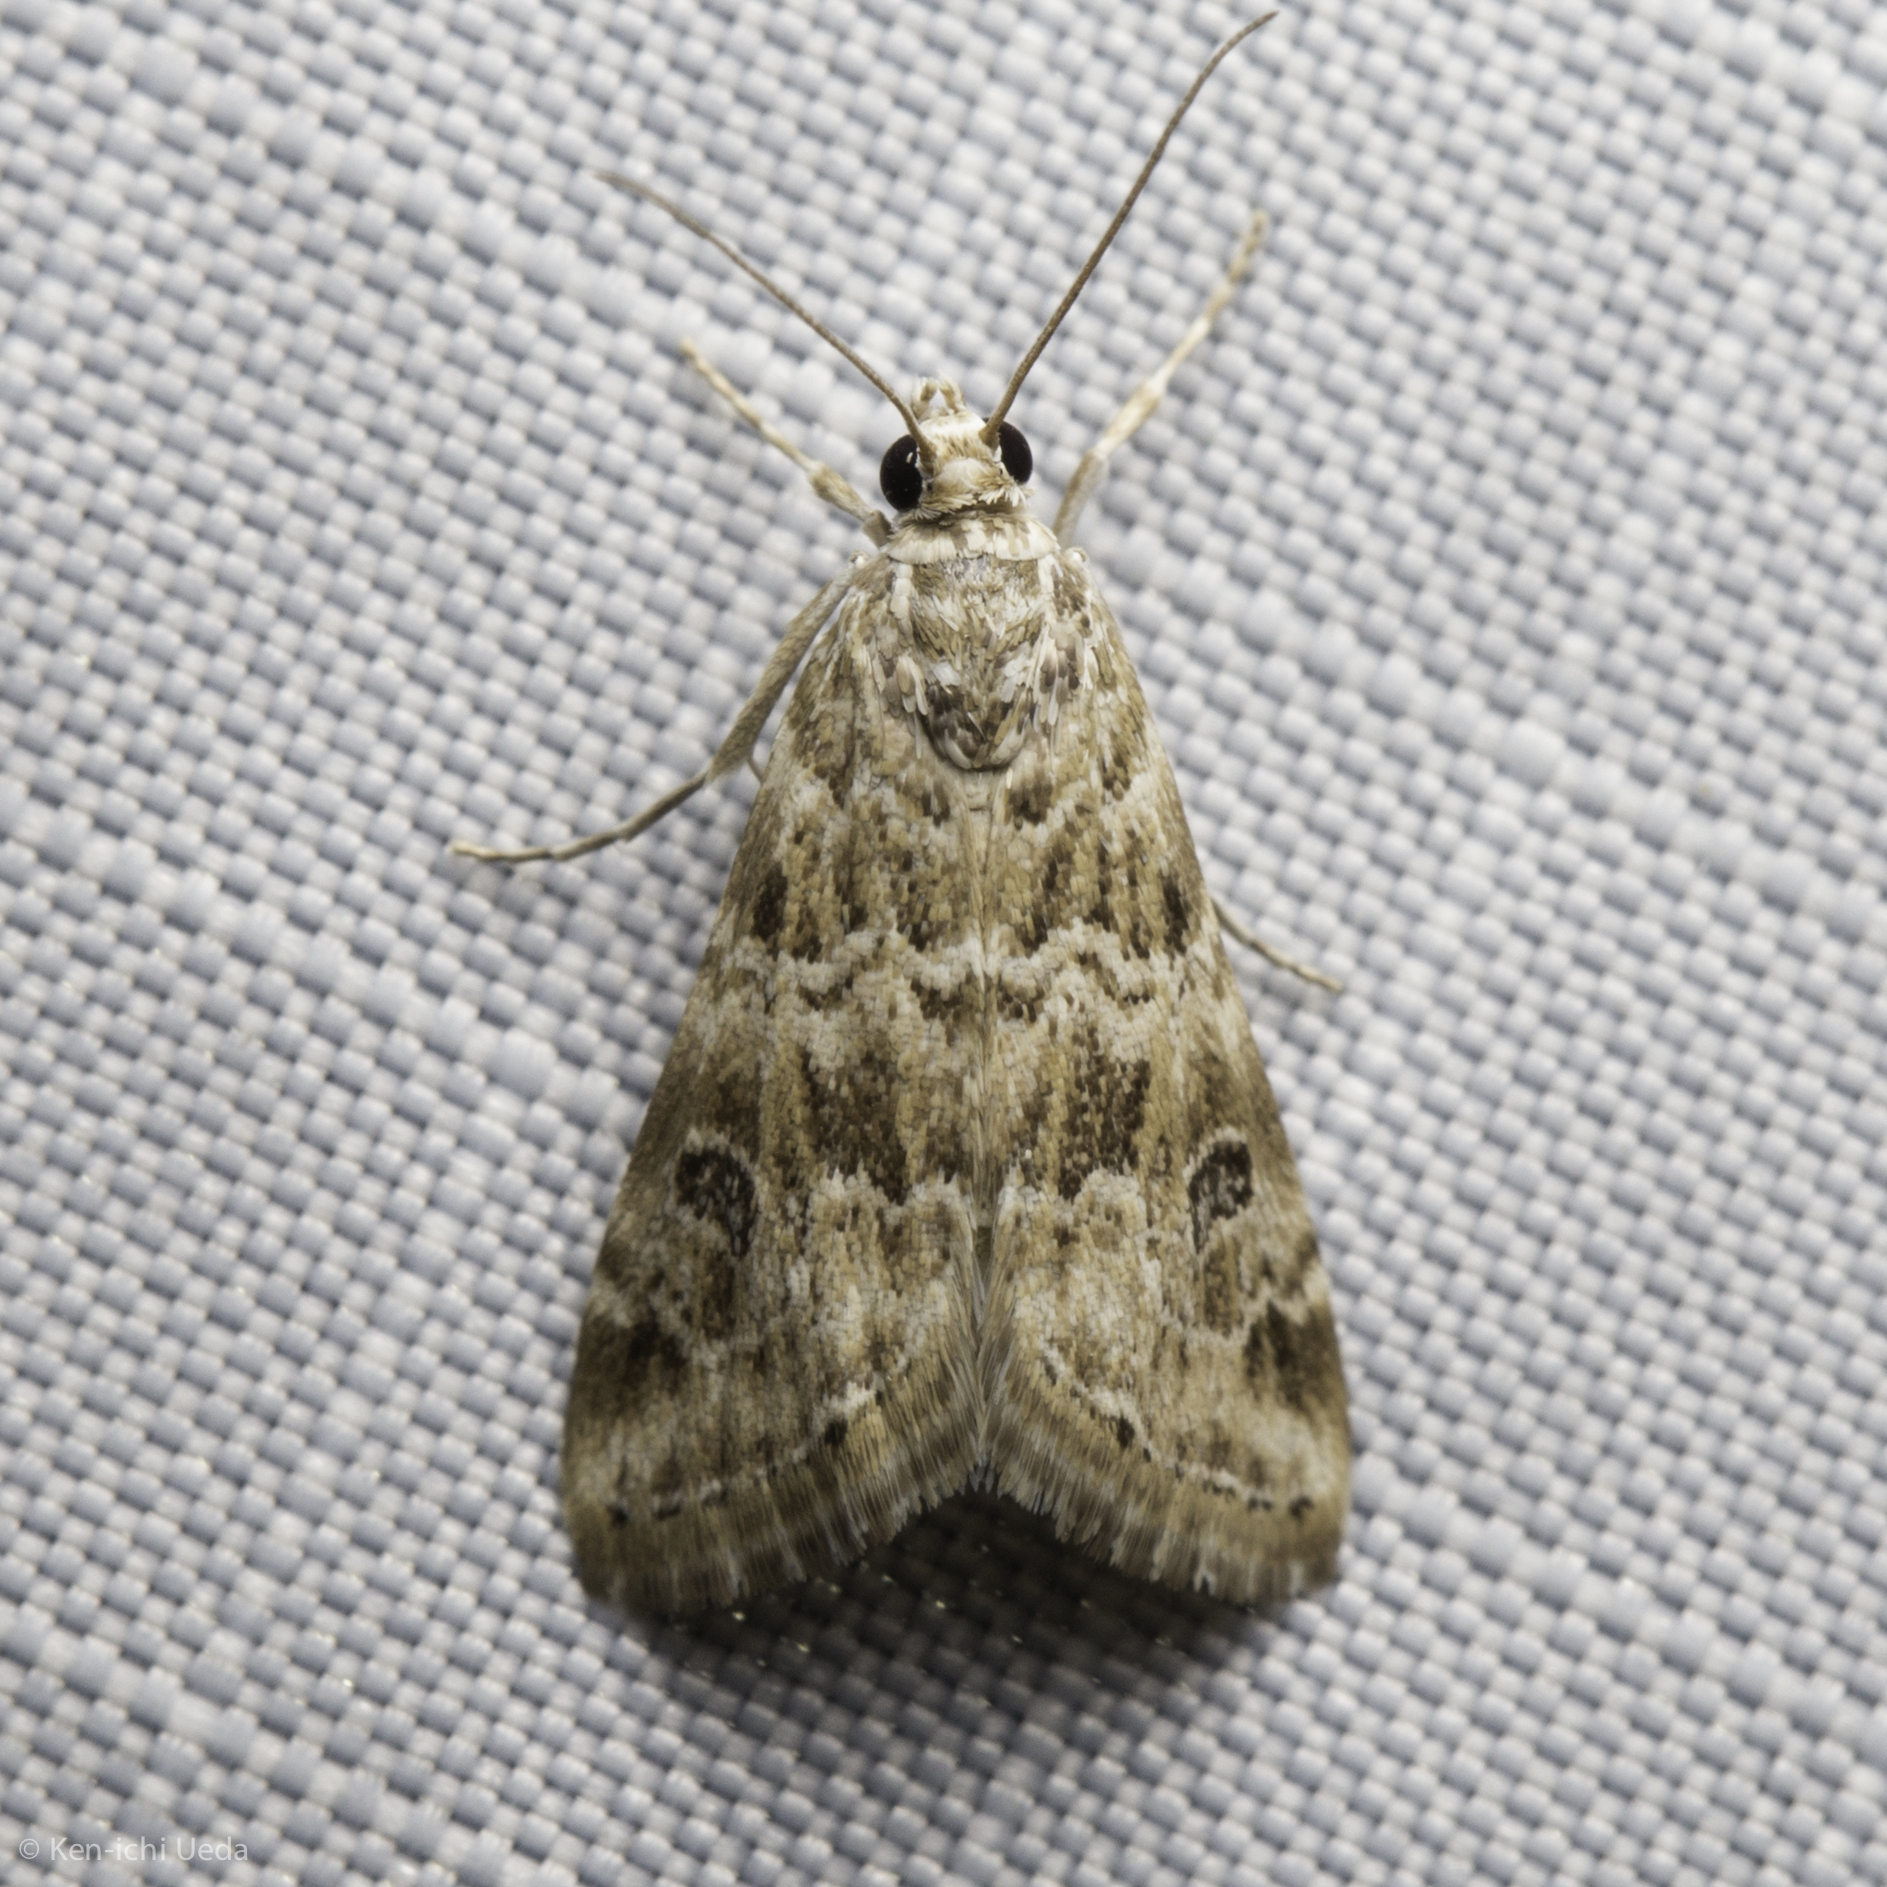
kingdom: Animalia
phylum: Arthropoda
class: Insecta
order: Lepidoptera
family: Crambidae
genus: Hellula
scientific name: Hellula rogatalis
